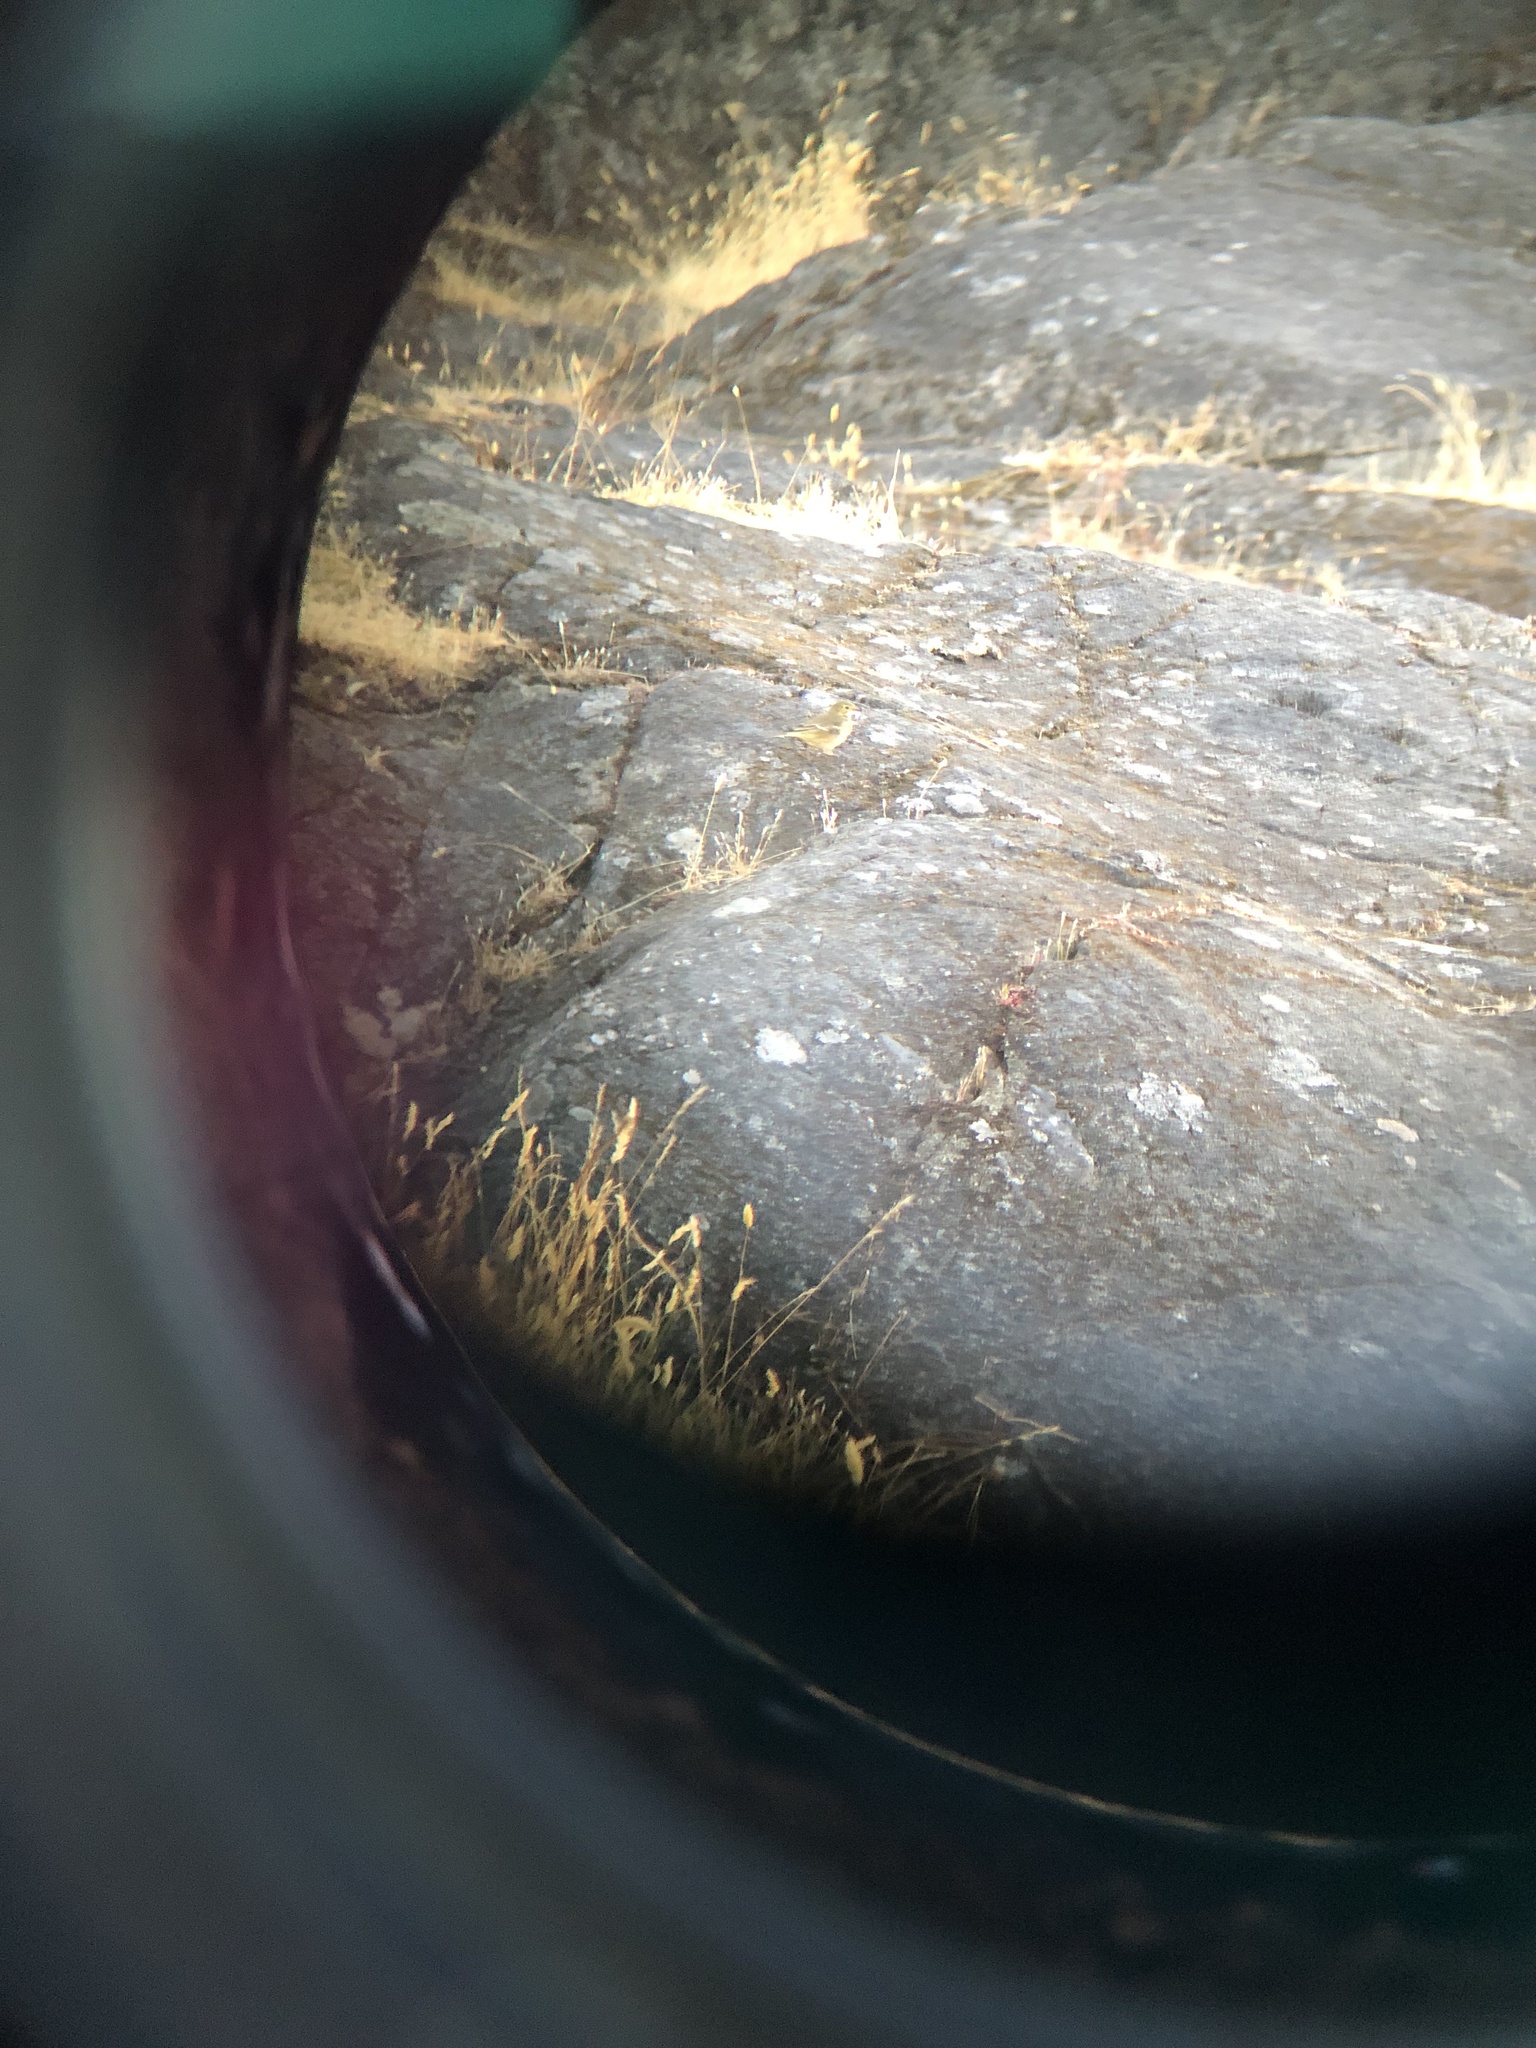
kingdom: Animalia
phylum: Chordata
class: Aves
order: Passeriformes
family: Motacillidae
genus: Anthus
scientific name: Anthus rubescens
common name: Buff-bellied pipit
